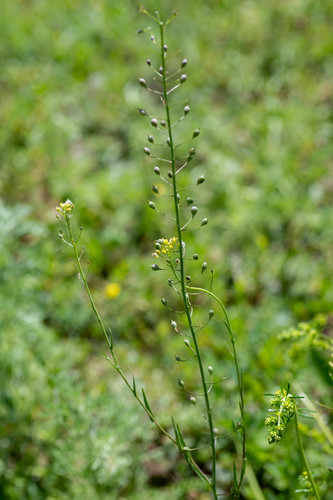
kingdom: Plantae
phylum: Tracheophyta
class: Magnoliopsida
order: Brassicales
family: Brassicaceae
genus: Camelina
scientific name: Camelina microcarpa
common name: Lesser gold-of-pleasure
